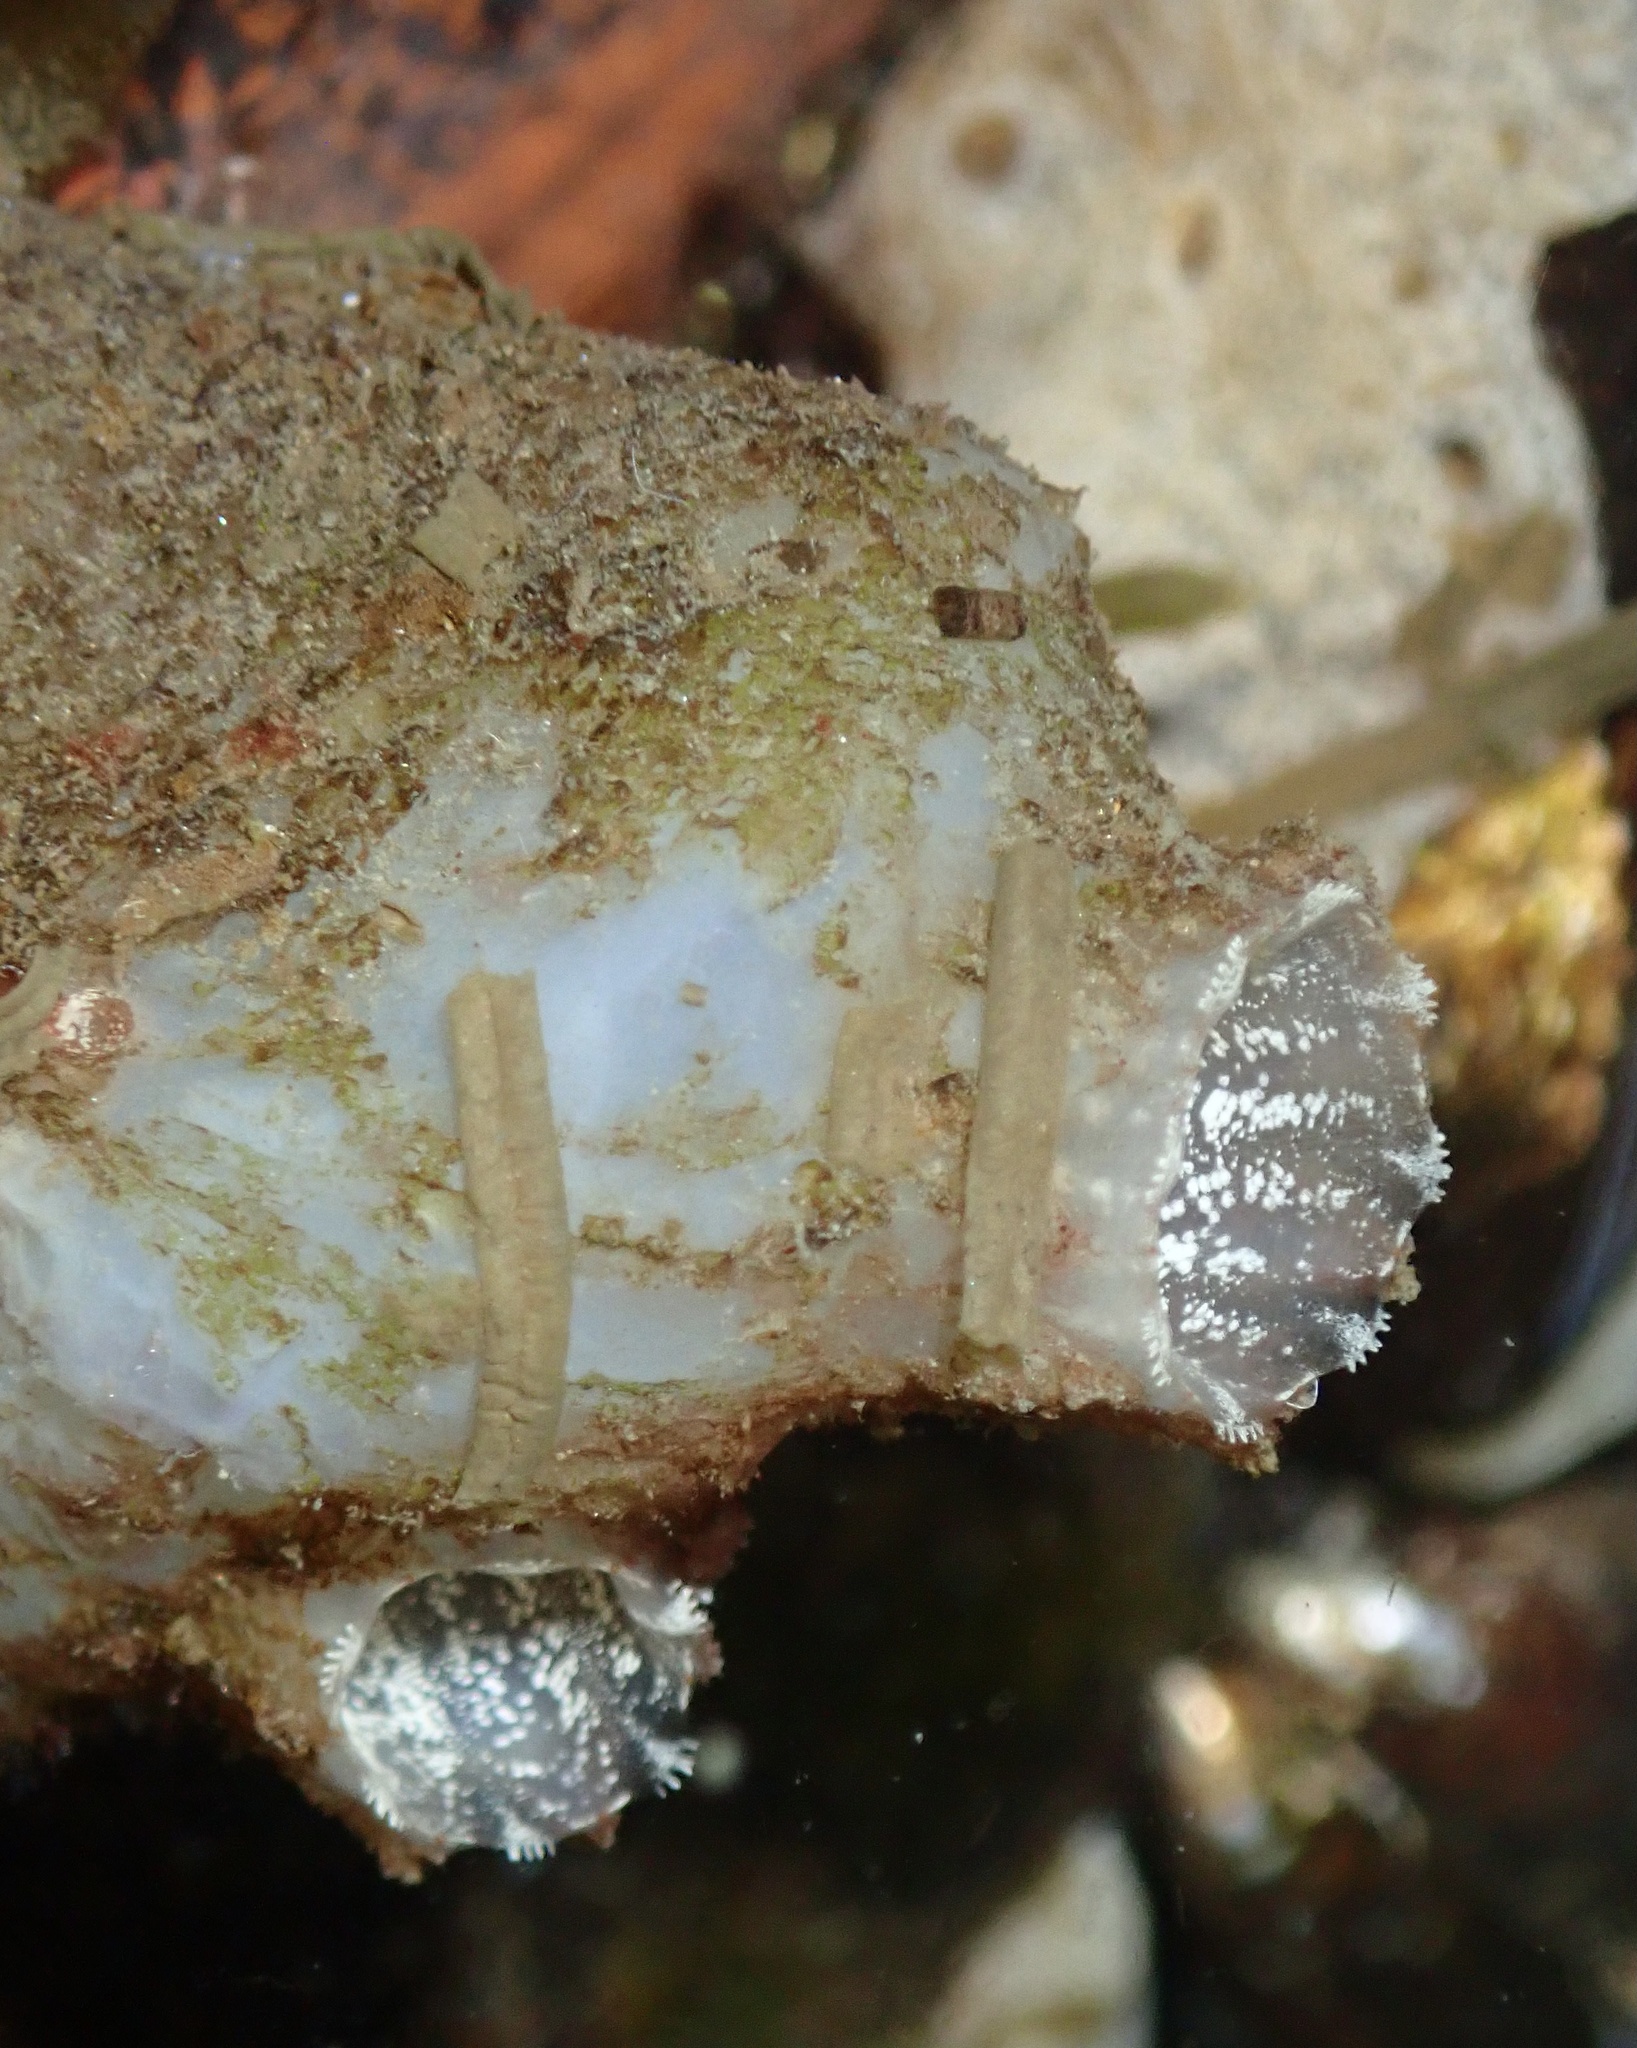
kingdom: Animalia
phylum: Chordata
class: Ascidiacea
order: Phlebobranchia
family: Ascidiidae
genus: Ascidiella
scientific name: Ascidiella aspersa
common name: Dirty sea-squirt
